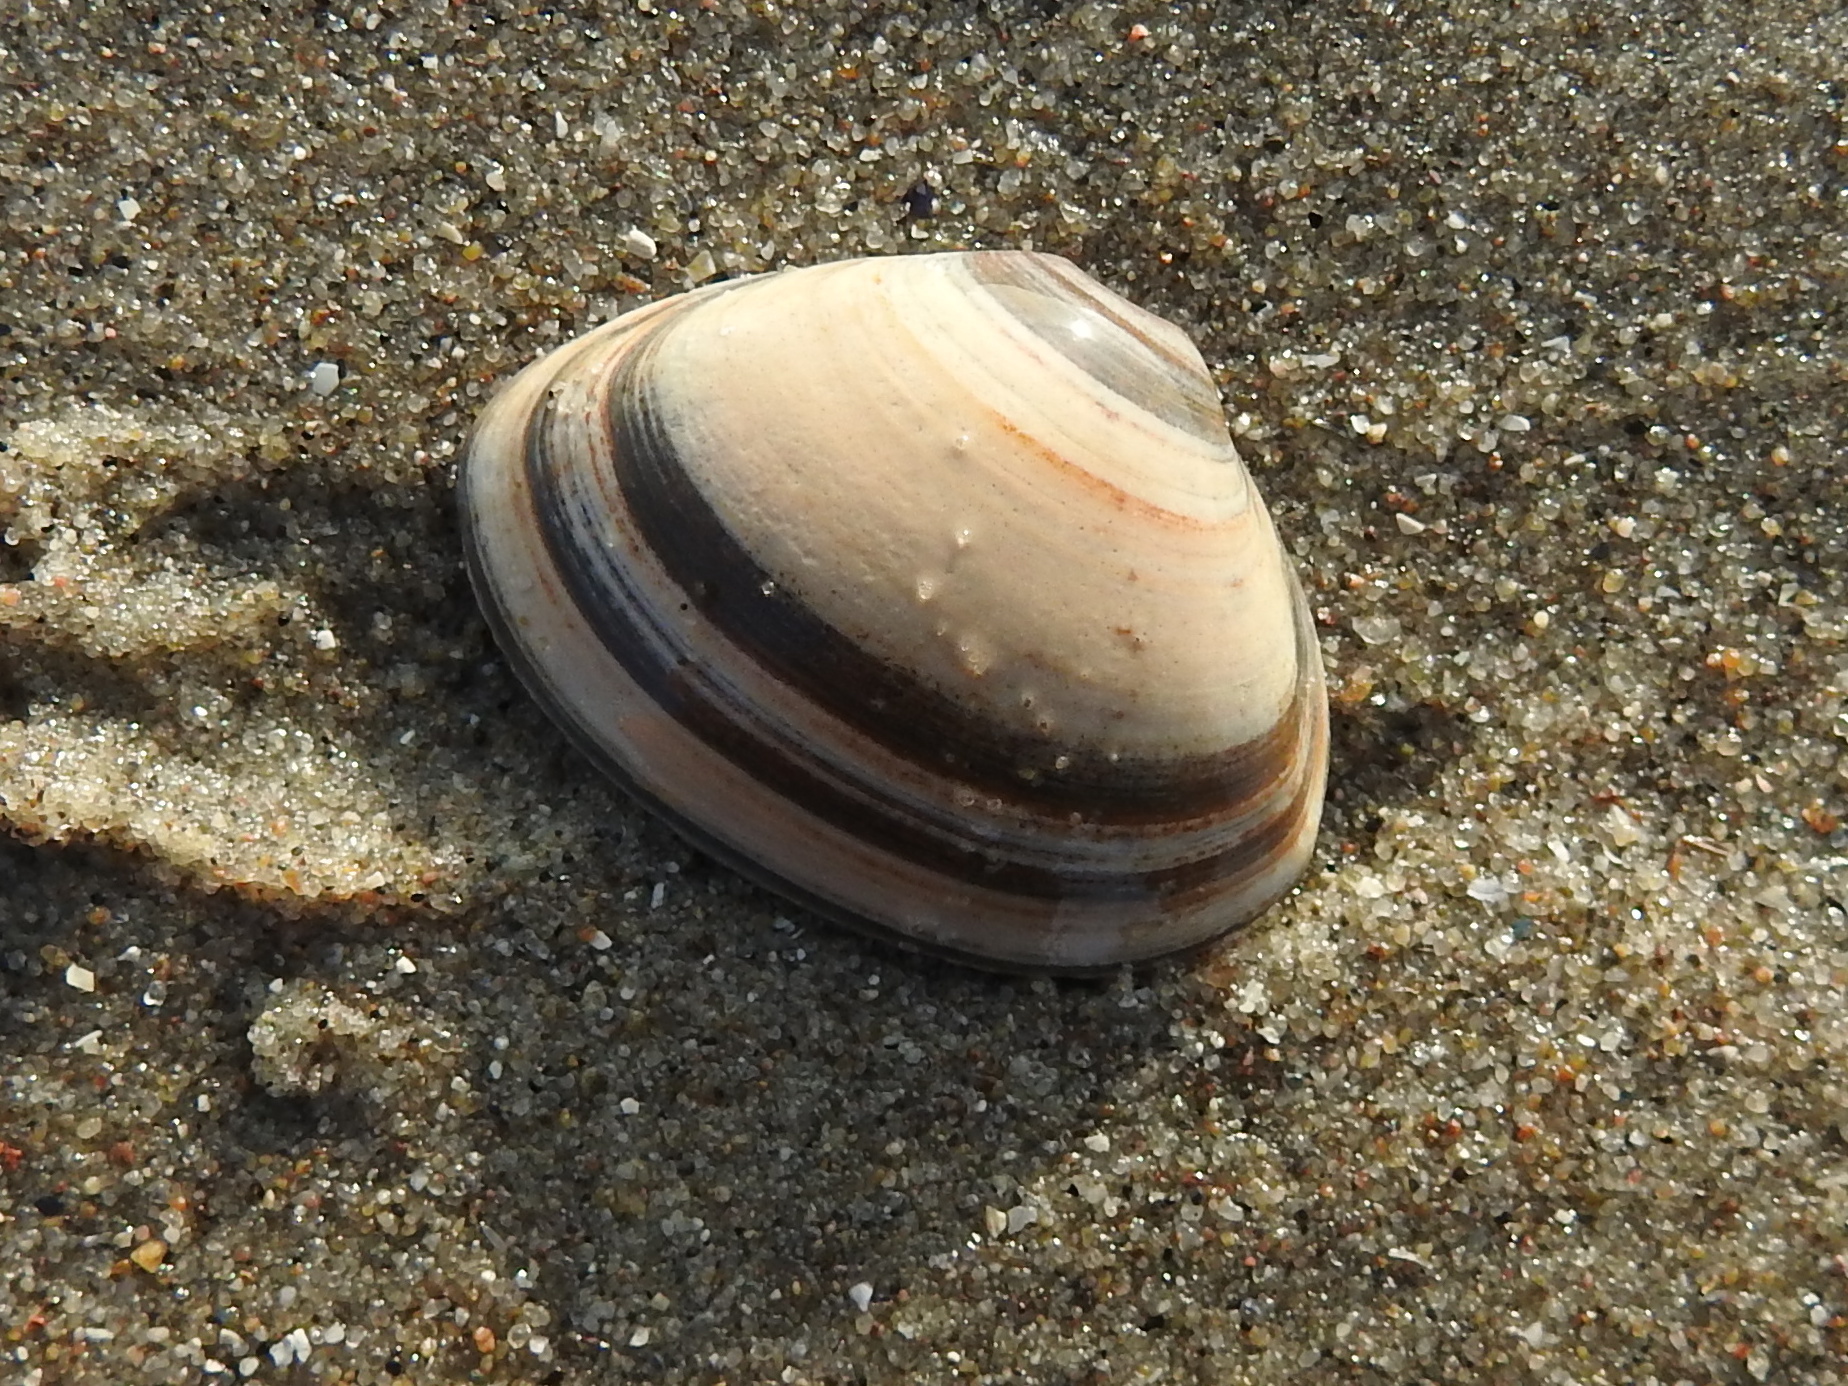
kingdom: Animalia
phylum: Mollusca
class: Bivalvia
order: Venerida
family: Mactridae
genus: Spisula
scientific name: Spisula elliptica
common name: Elliptic trough shell
